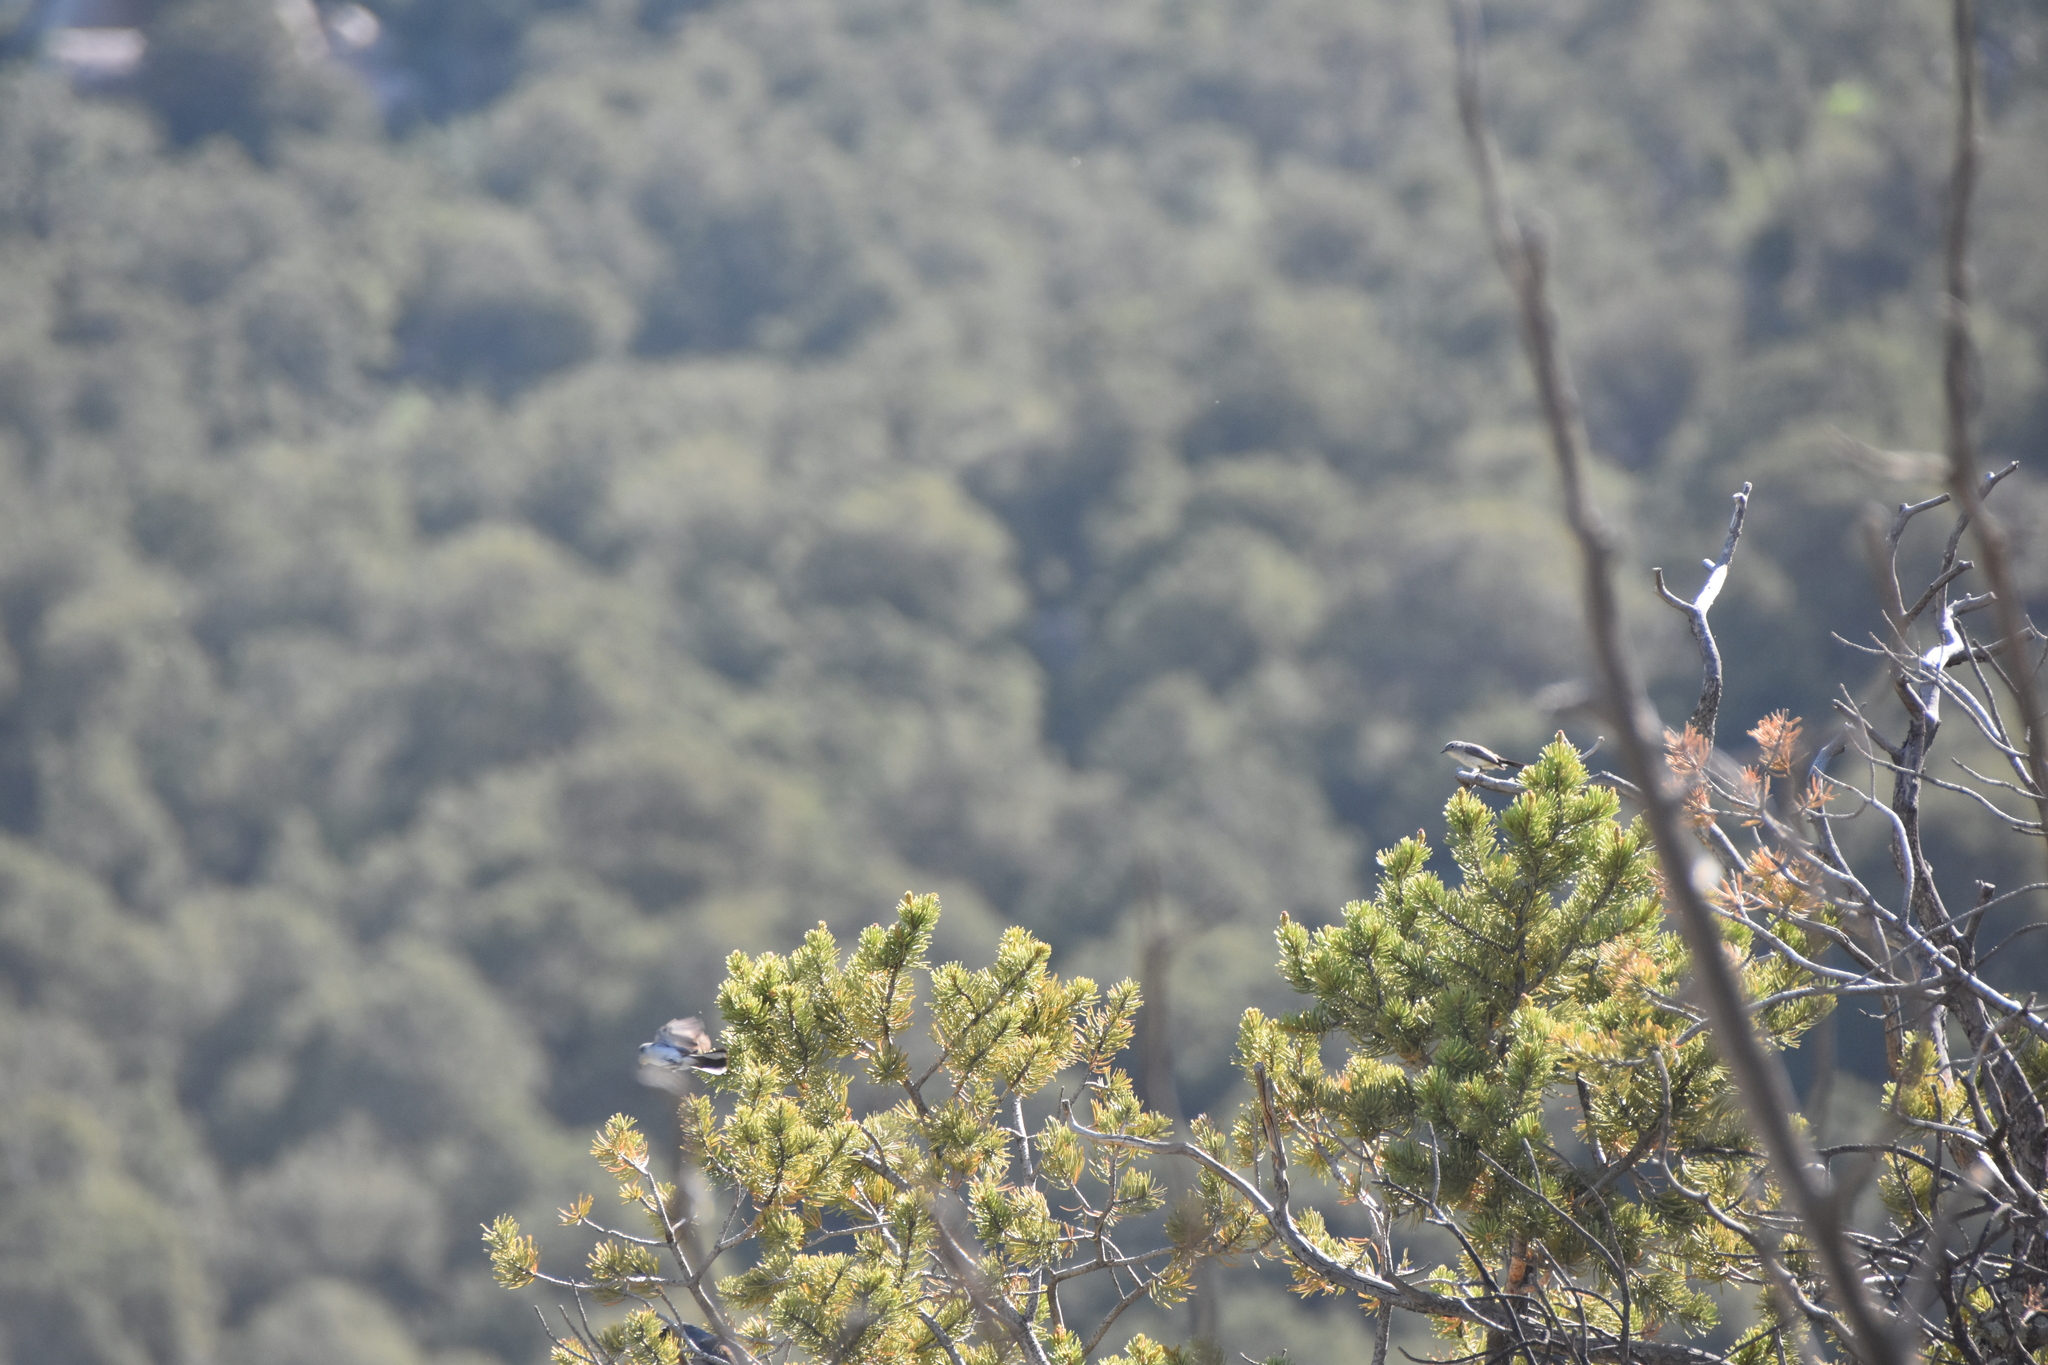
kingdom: Animalia
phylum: Chordata
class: Aves
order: Passeriformes
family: Polioptilidae
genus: Polioptila
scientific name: Polioptila caerulea
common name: Blue-gray gnatcatcher
